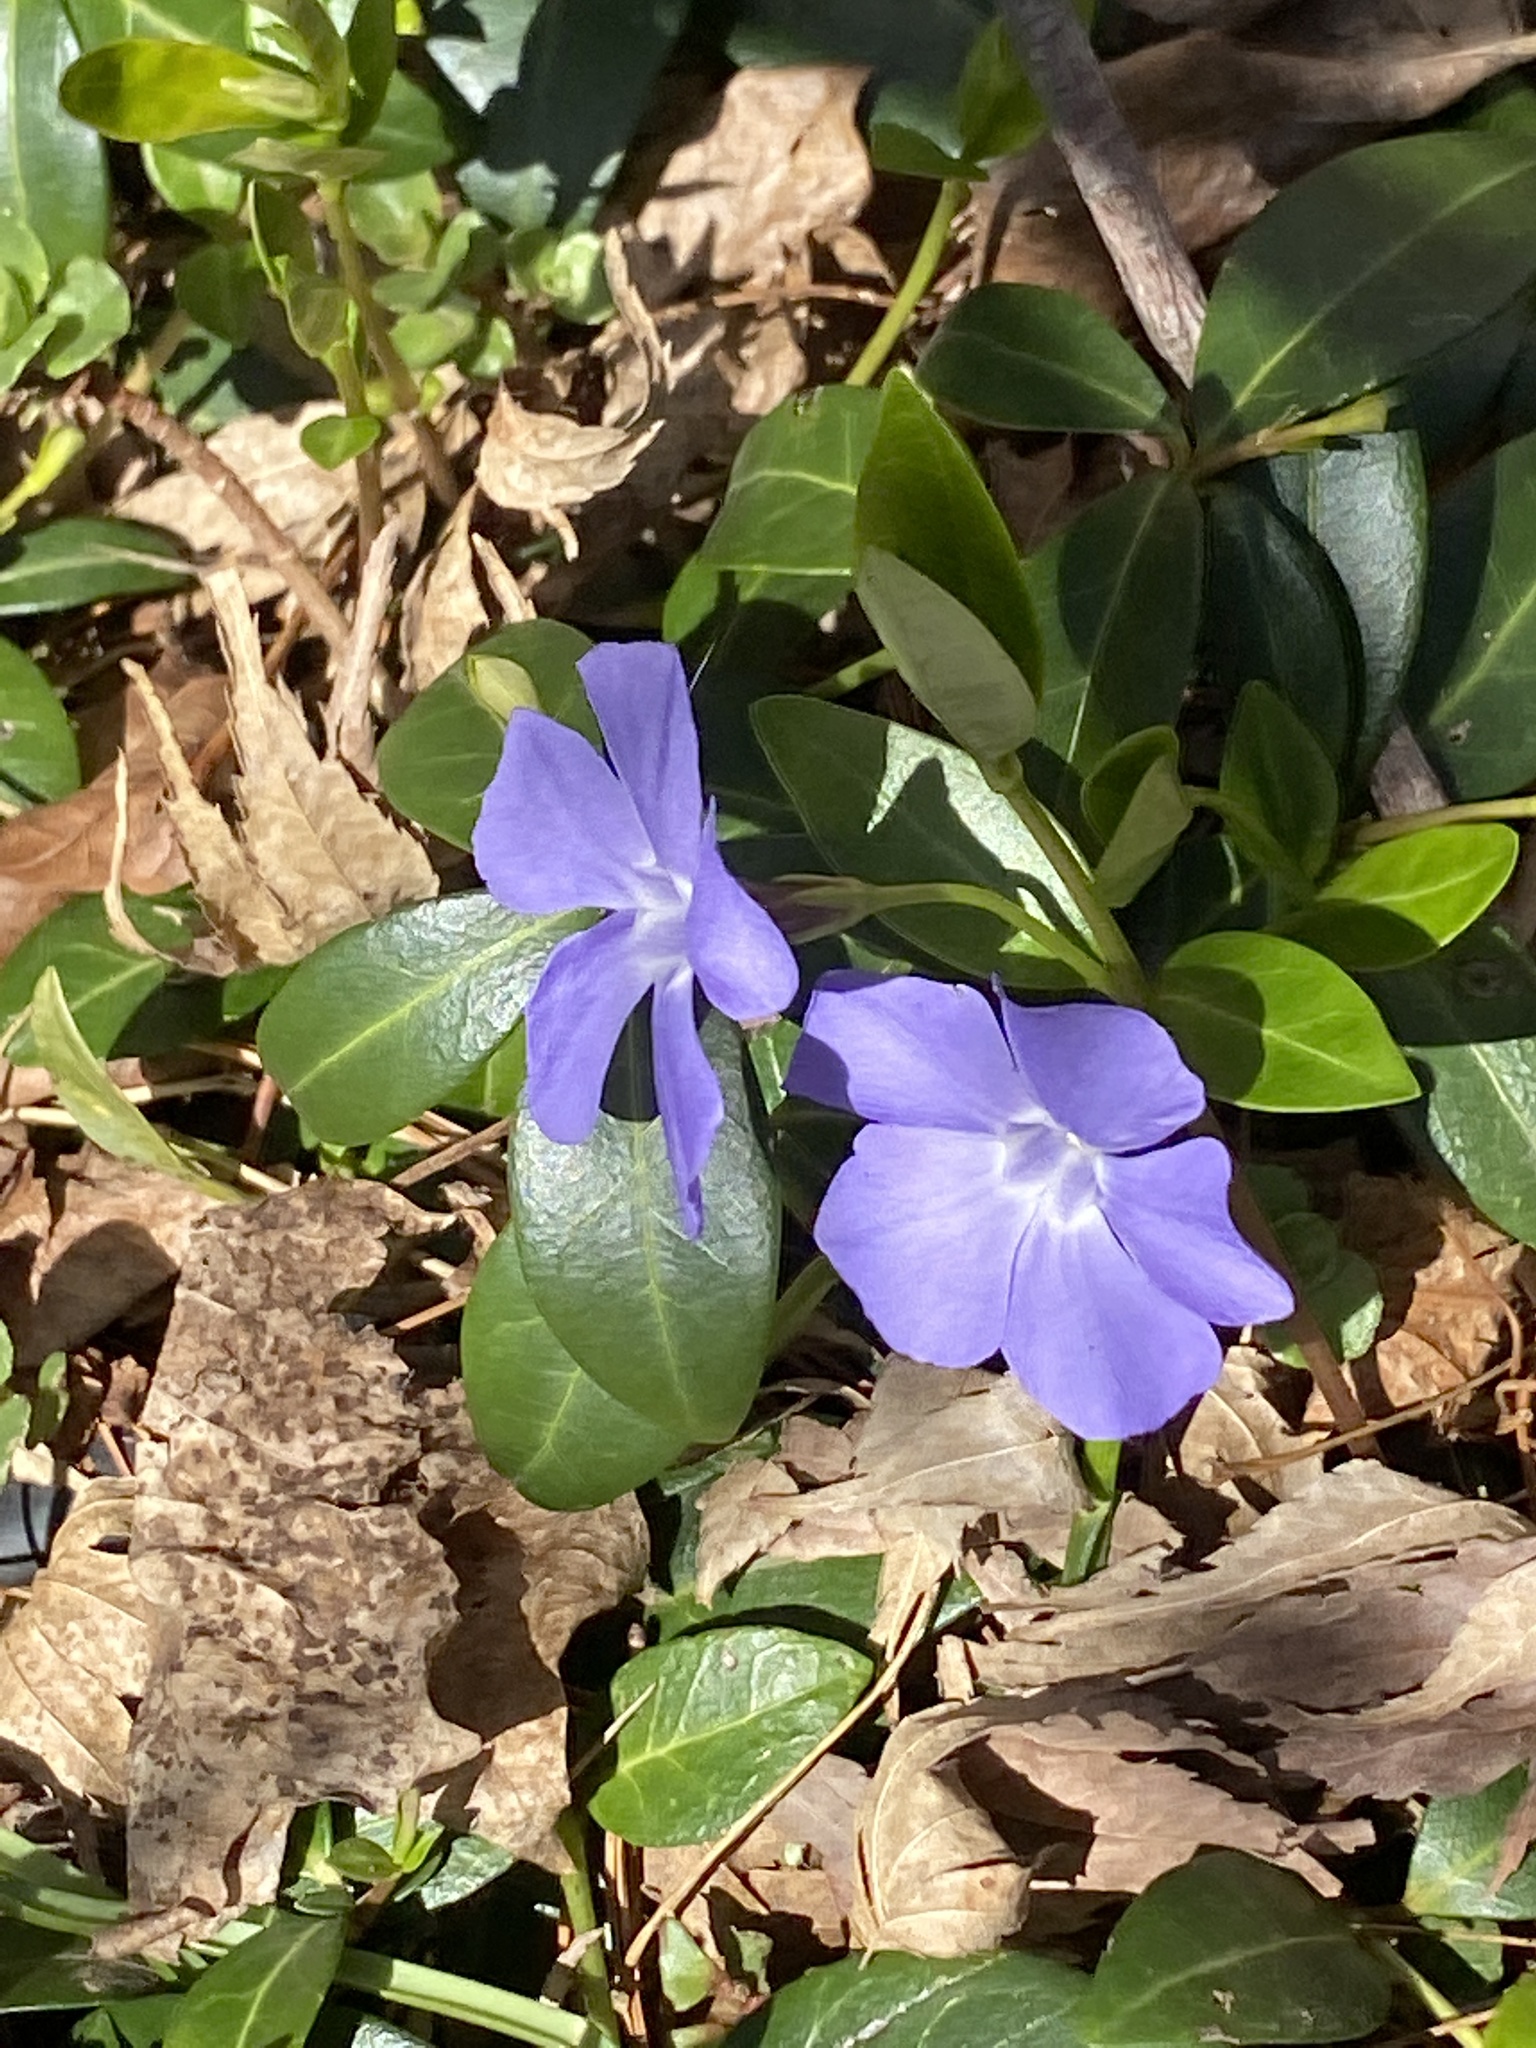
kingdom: Plantae
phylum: Tracheophyta
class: Magnoliopsida
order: Gentianales
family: Apocynaceae
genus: Vinca
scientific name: Vinca minor
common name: Lesser periwinkle
